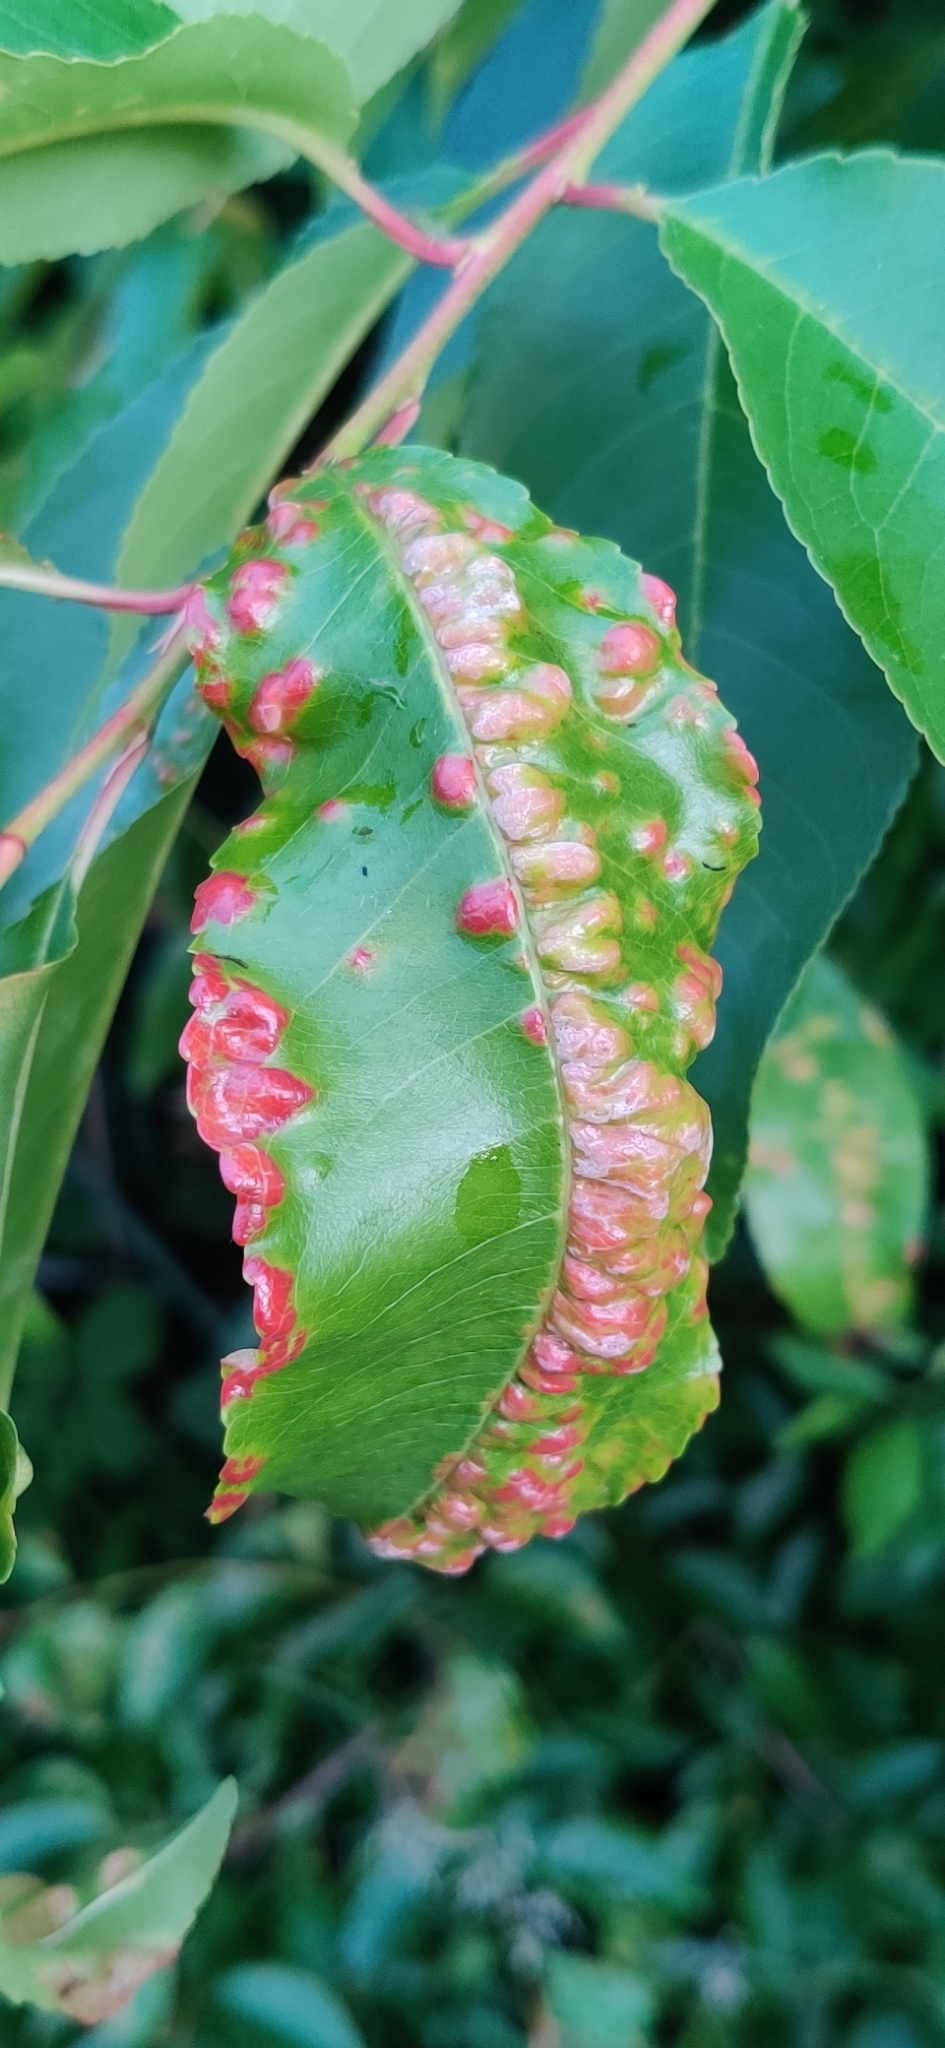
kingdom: Fungi
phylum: Ascomycota
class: Taphrinomycetes
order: Taphrinales
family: Taphrinaceae
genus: Taphrina
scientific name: Taphrina farlowii
